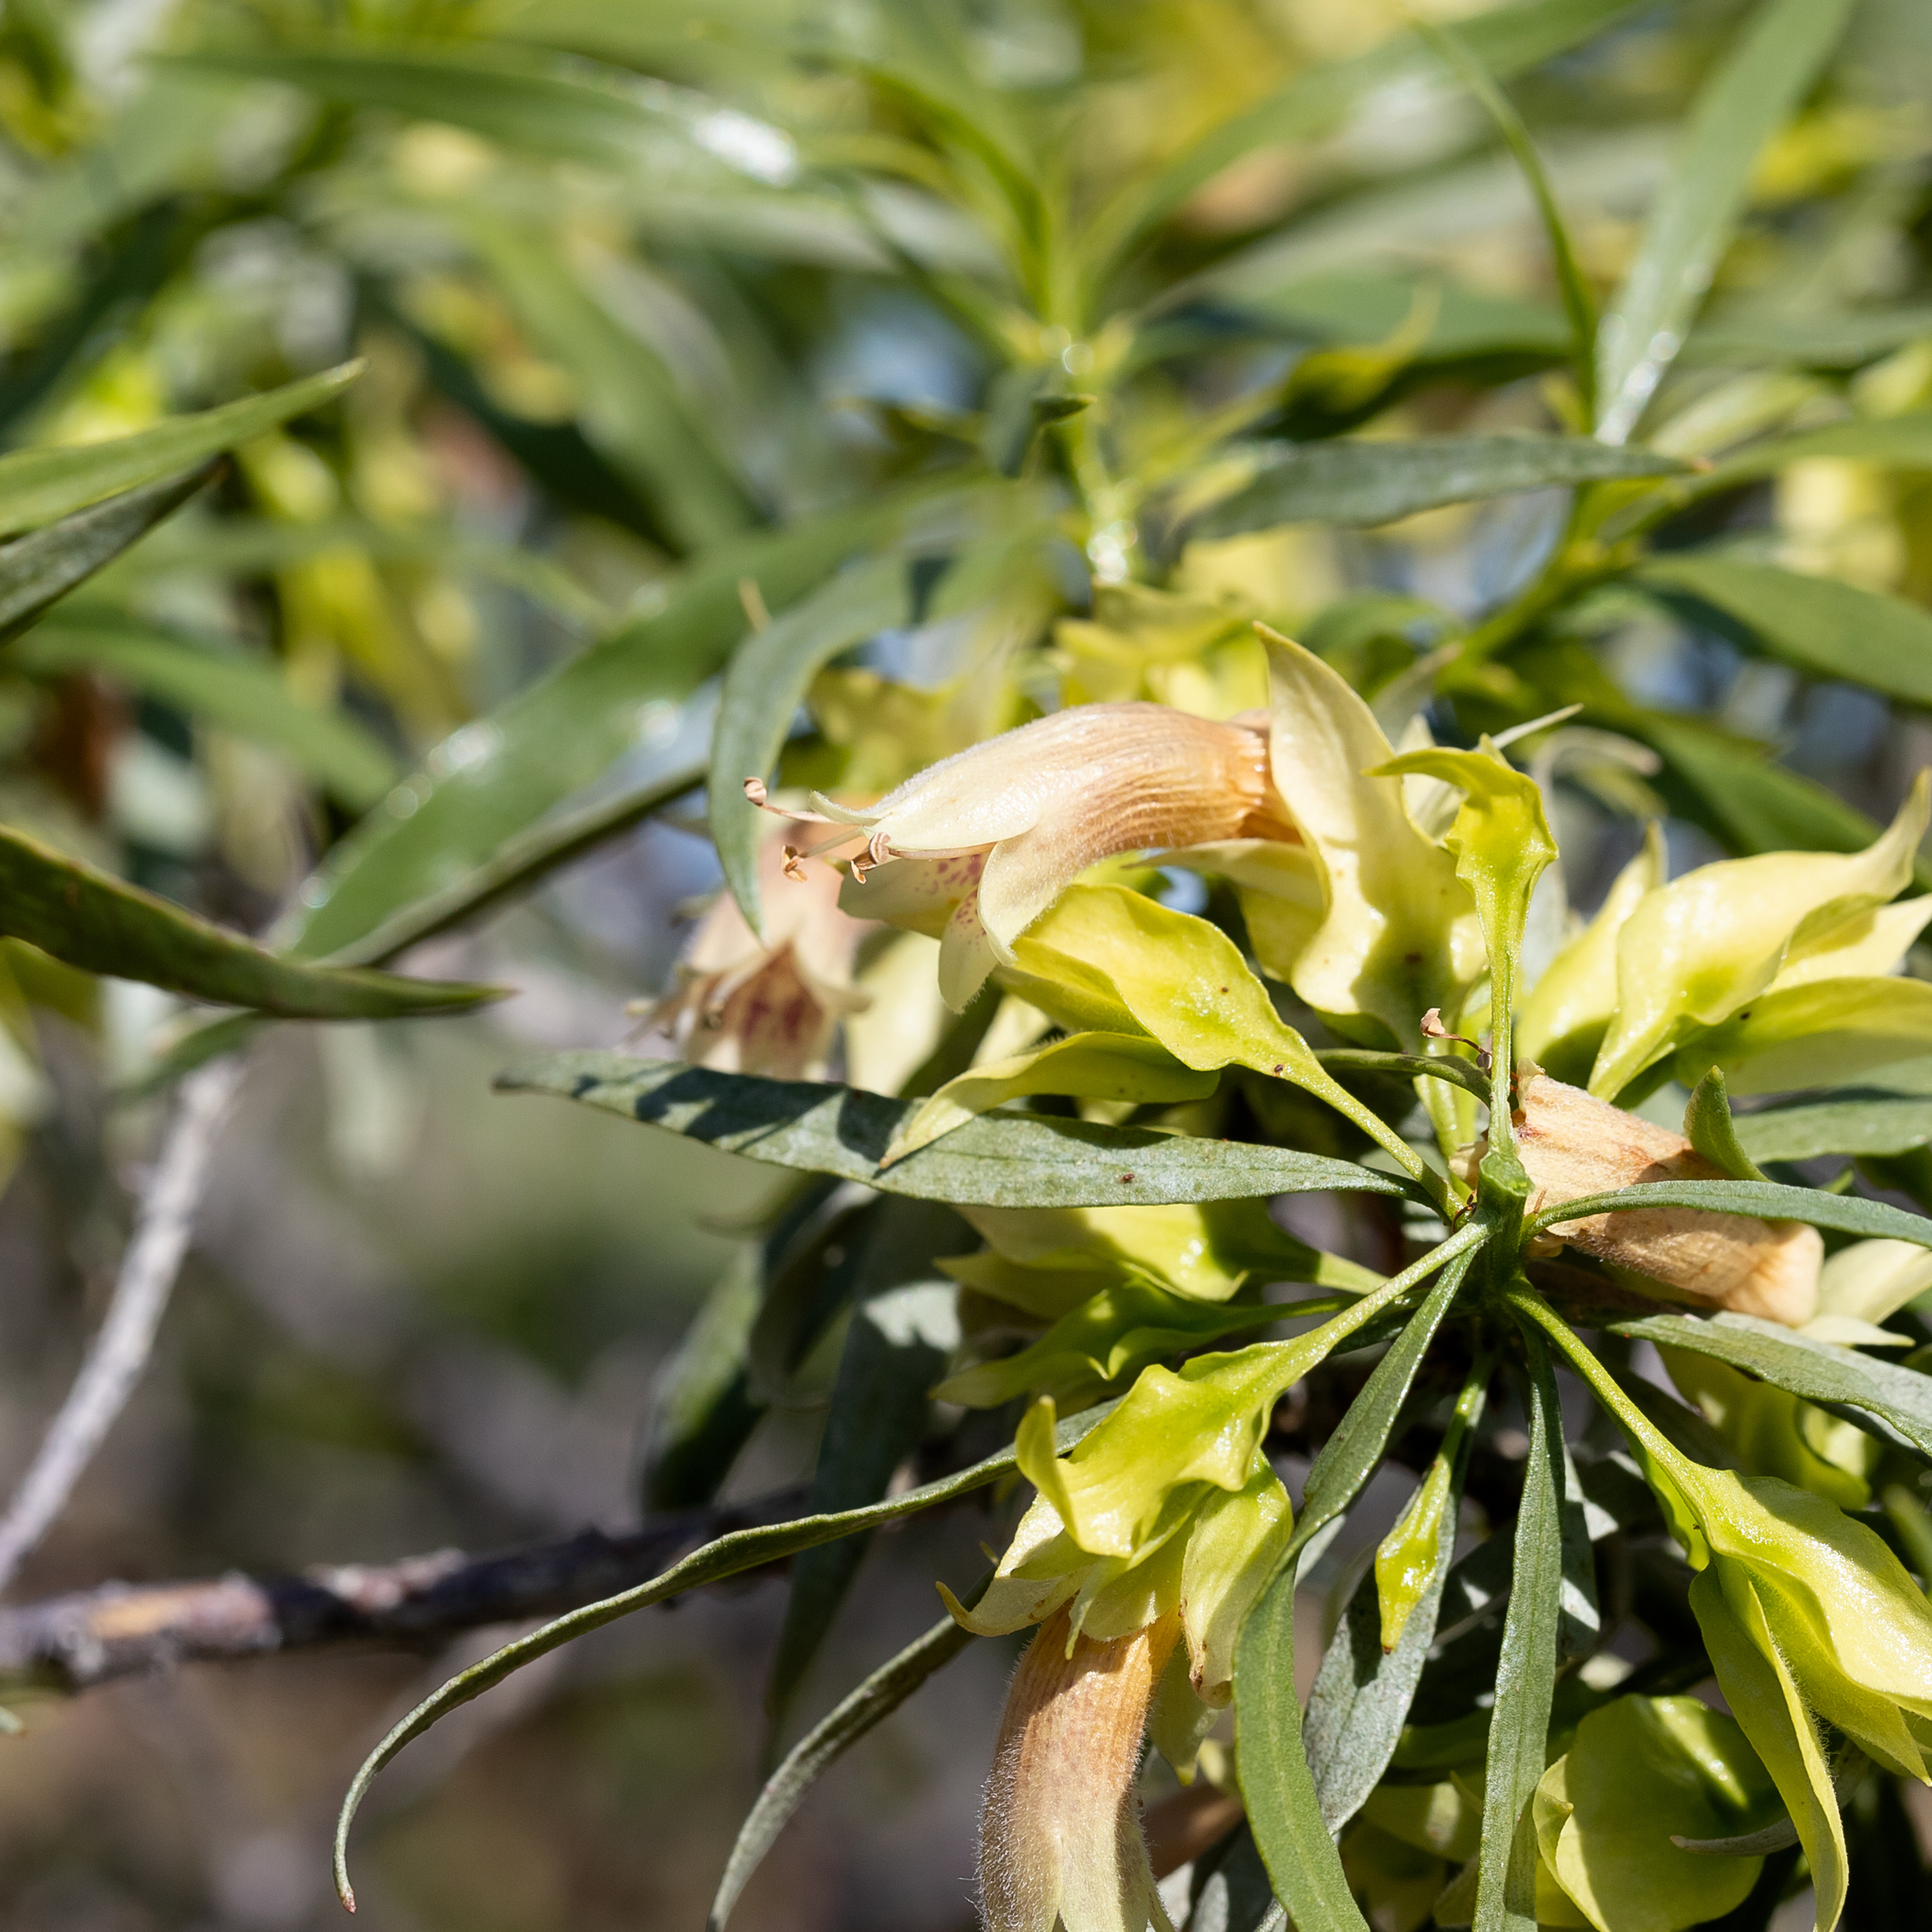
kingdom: Plantae
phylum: Tracheophyta
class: Magnoliopsida
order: Lamiales
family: Scrophulariaceae
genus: Eremophila
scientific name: Eremophila alatisepala
